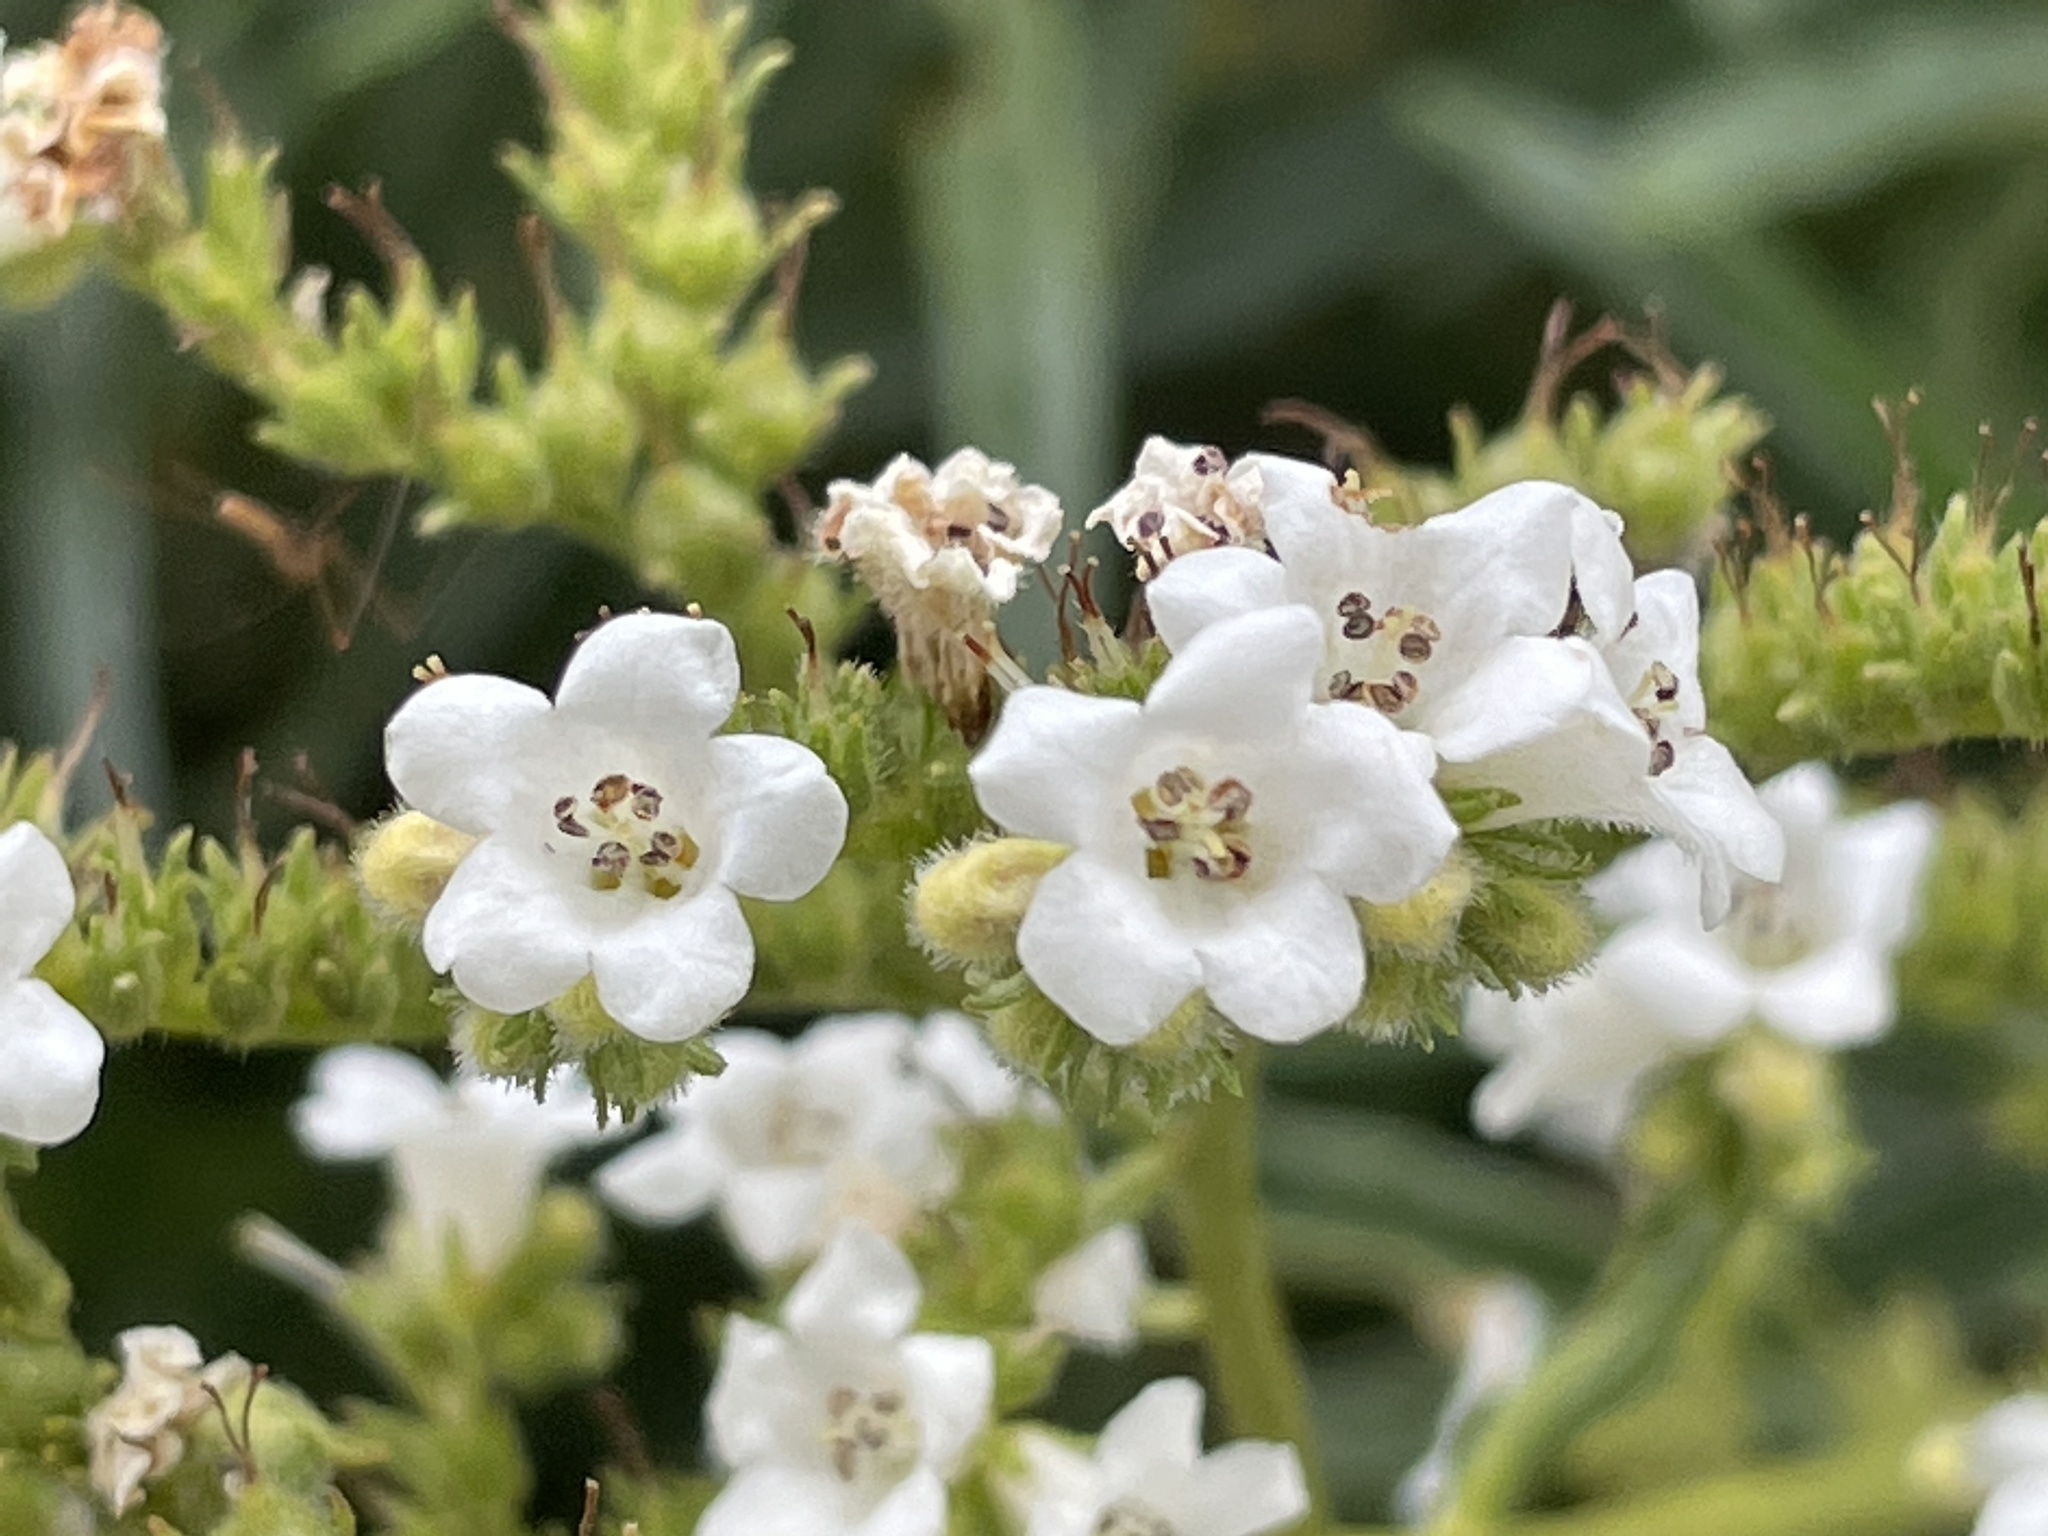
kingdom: Plantae
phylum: Tracheophyta
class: Magnoliopsida
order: Boraginales
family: Namaceae
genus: Eriodictyon
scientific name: Eriodictyon angustifolium
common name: Narrow-leaf yerba santa
